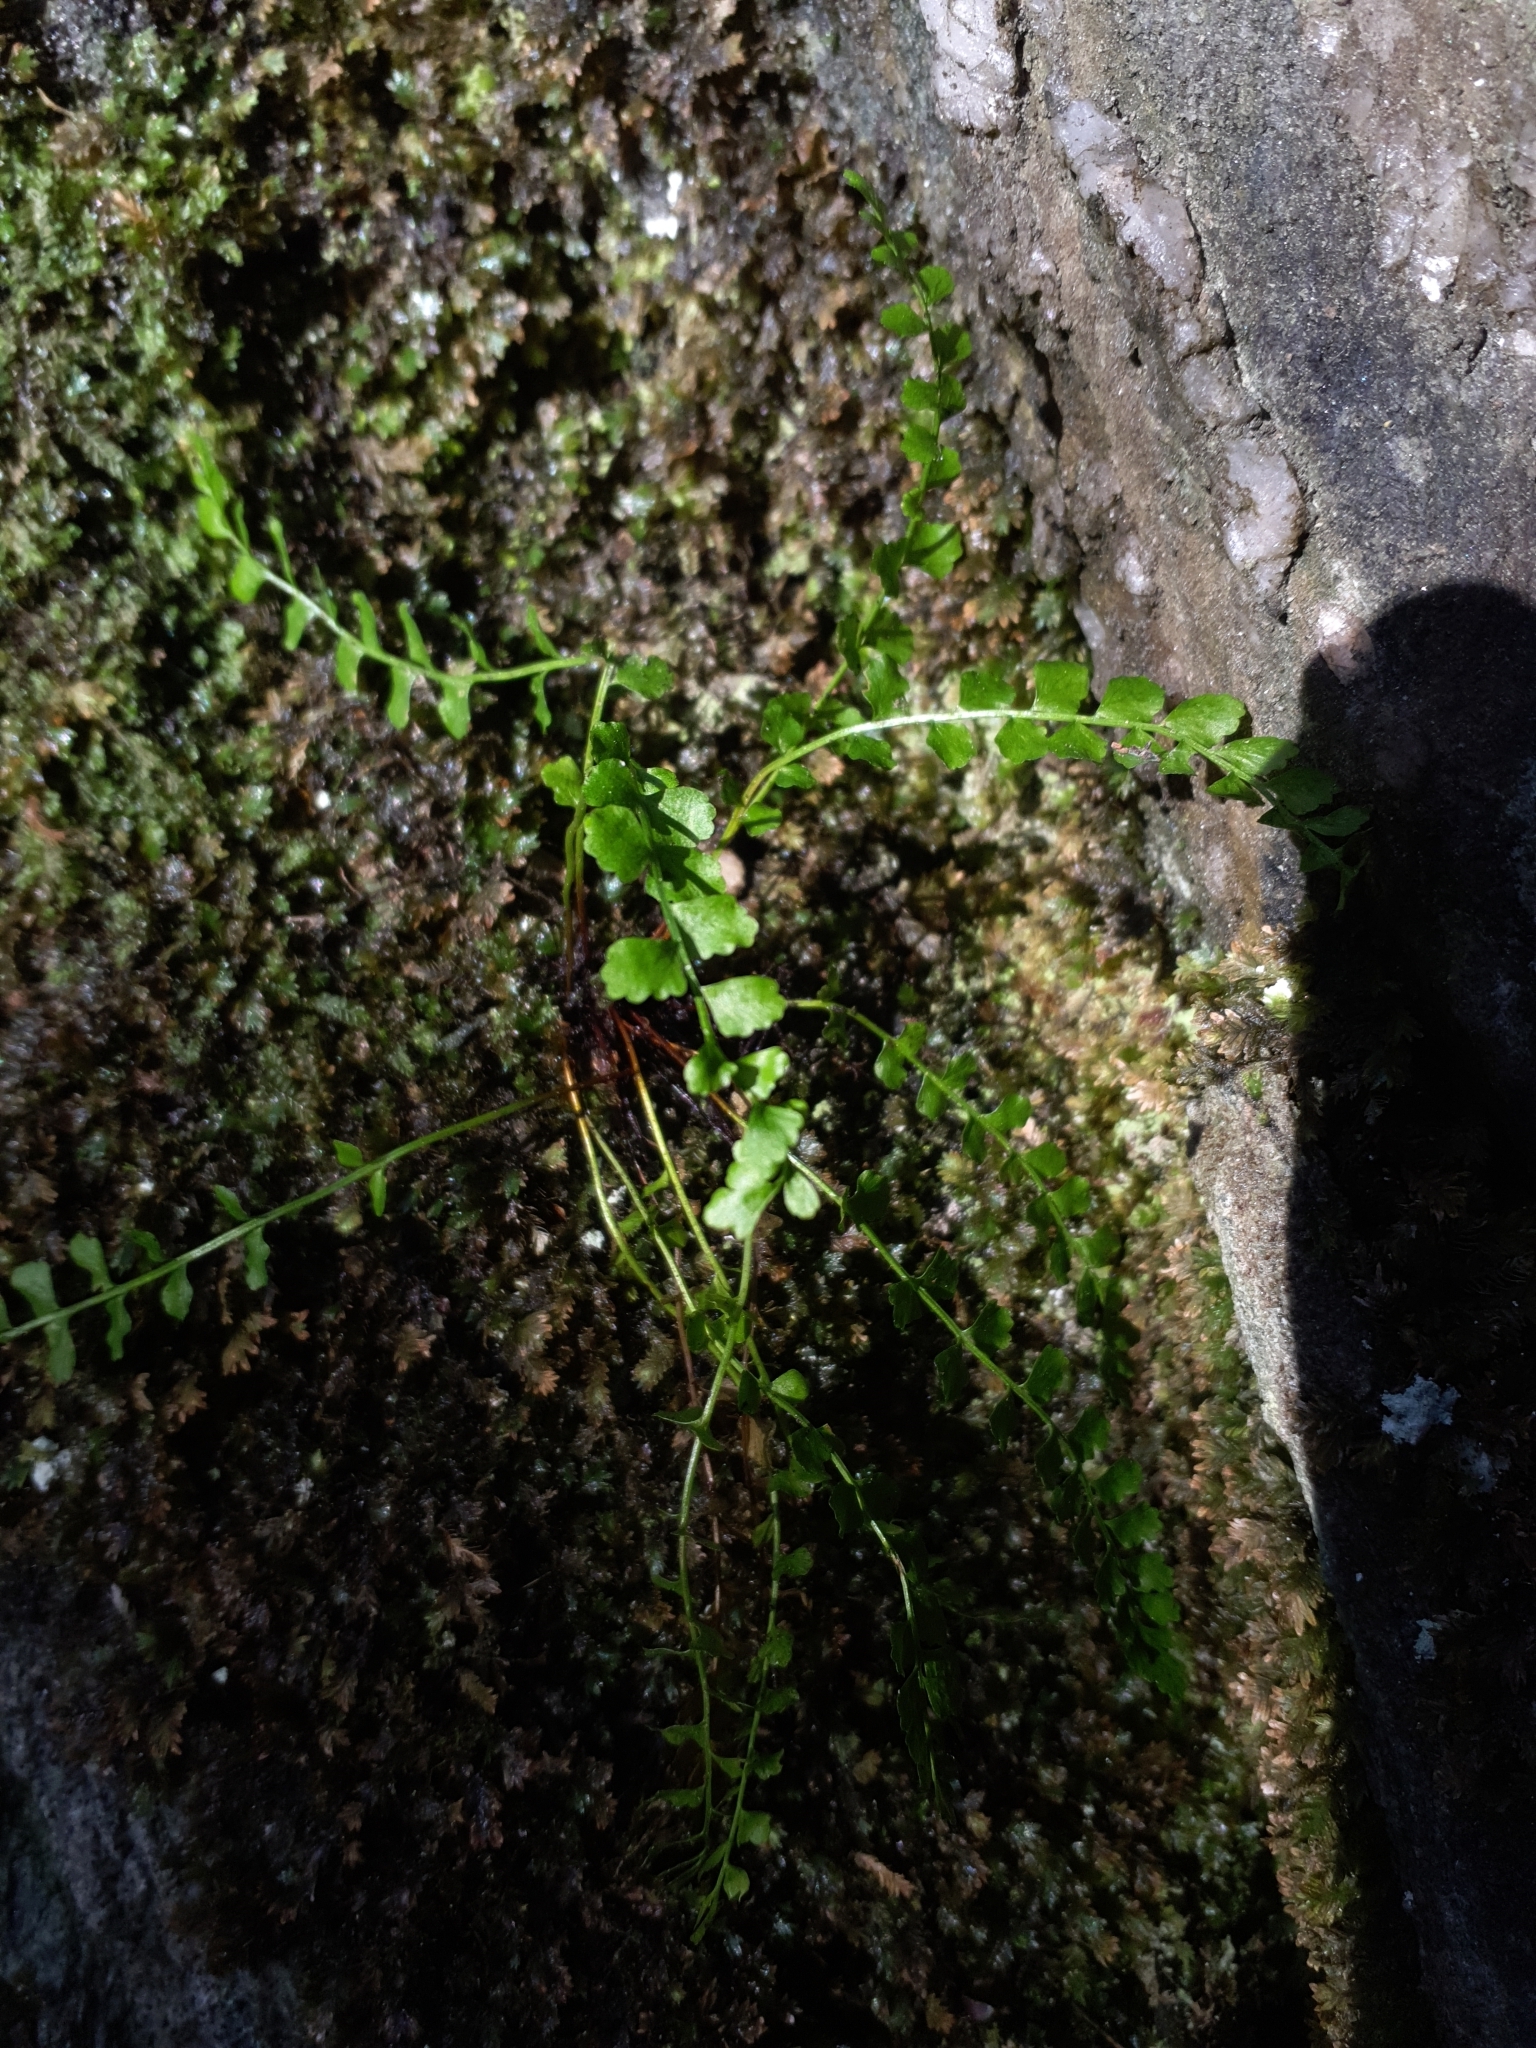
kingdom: Plantae
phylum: Tracheophyta
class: Polypodiopsida
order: Polypodiales
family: Aspleniaceae
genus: Asplenium
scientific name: Asplenium viride
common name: Green spleenwort
